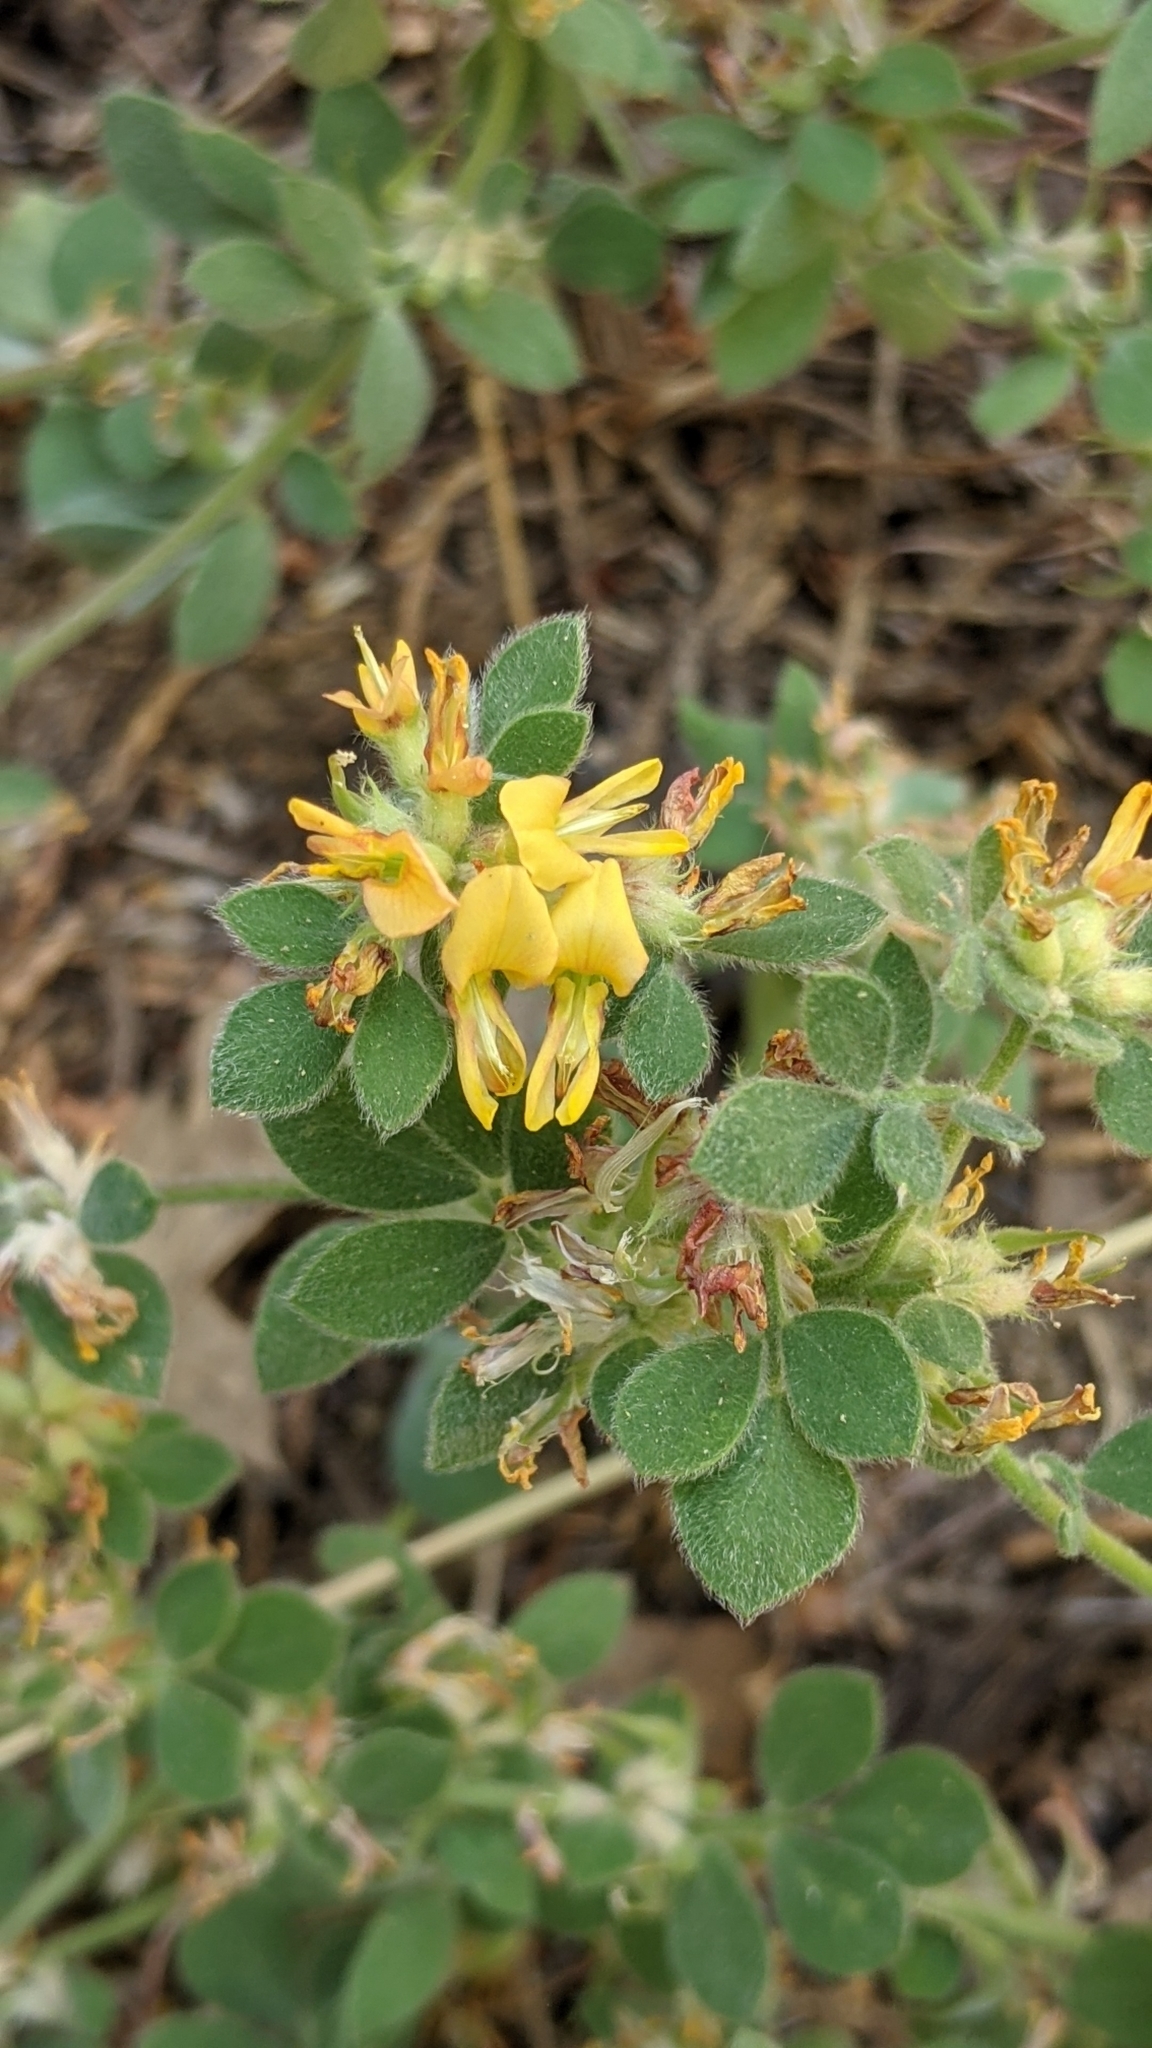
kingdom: Plantae
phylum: Tracheophyta
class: Magnoliopsida
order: Fabales
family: Fabaceae
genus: Acmispon
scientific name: Acmispon decumbens
